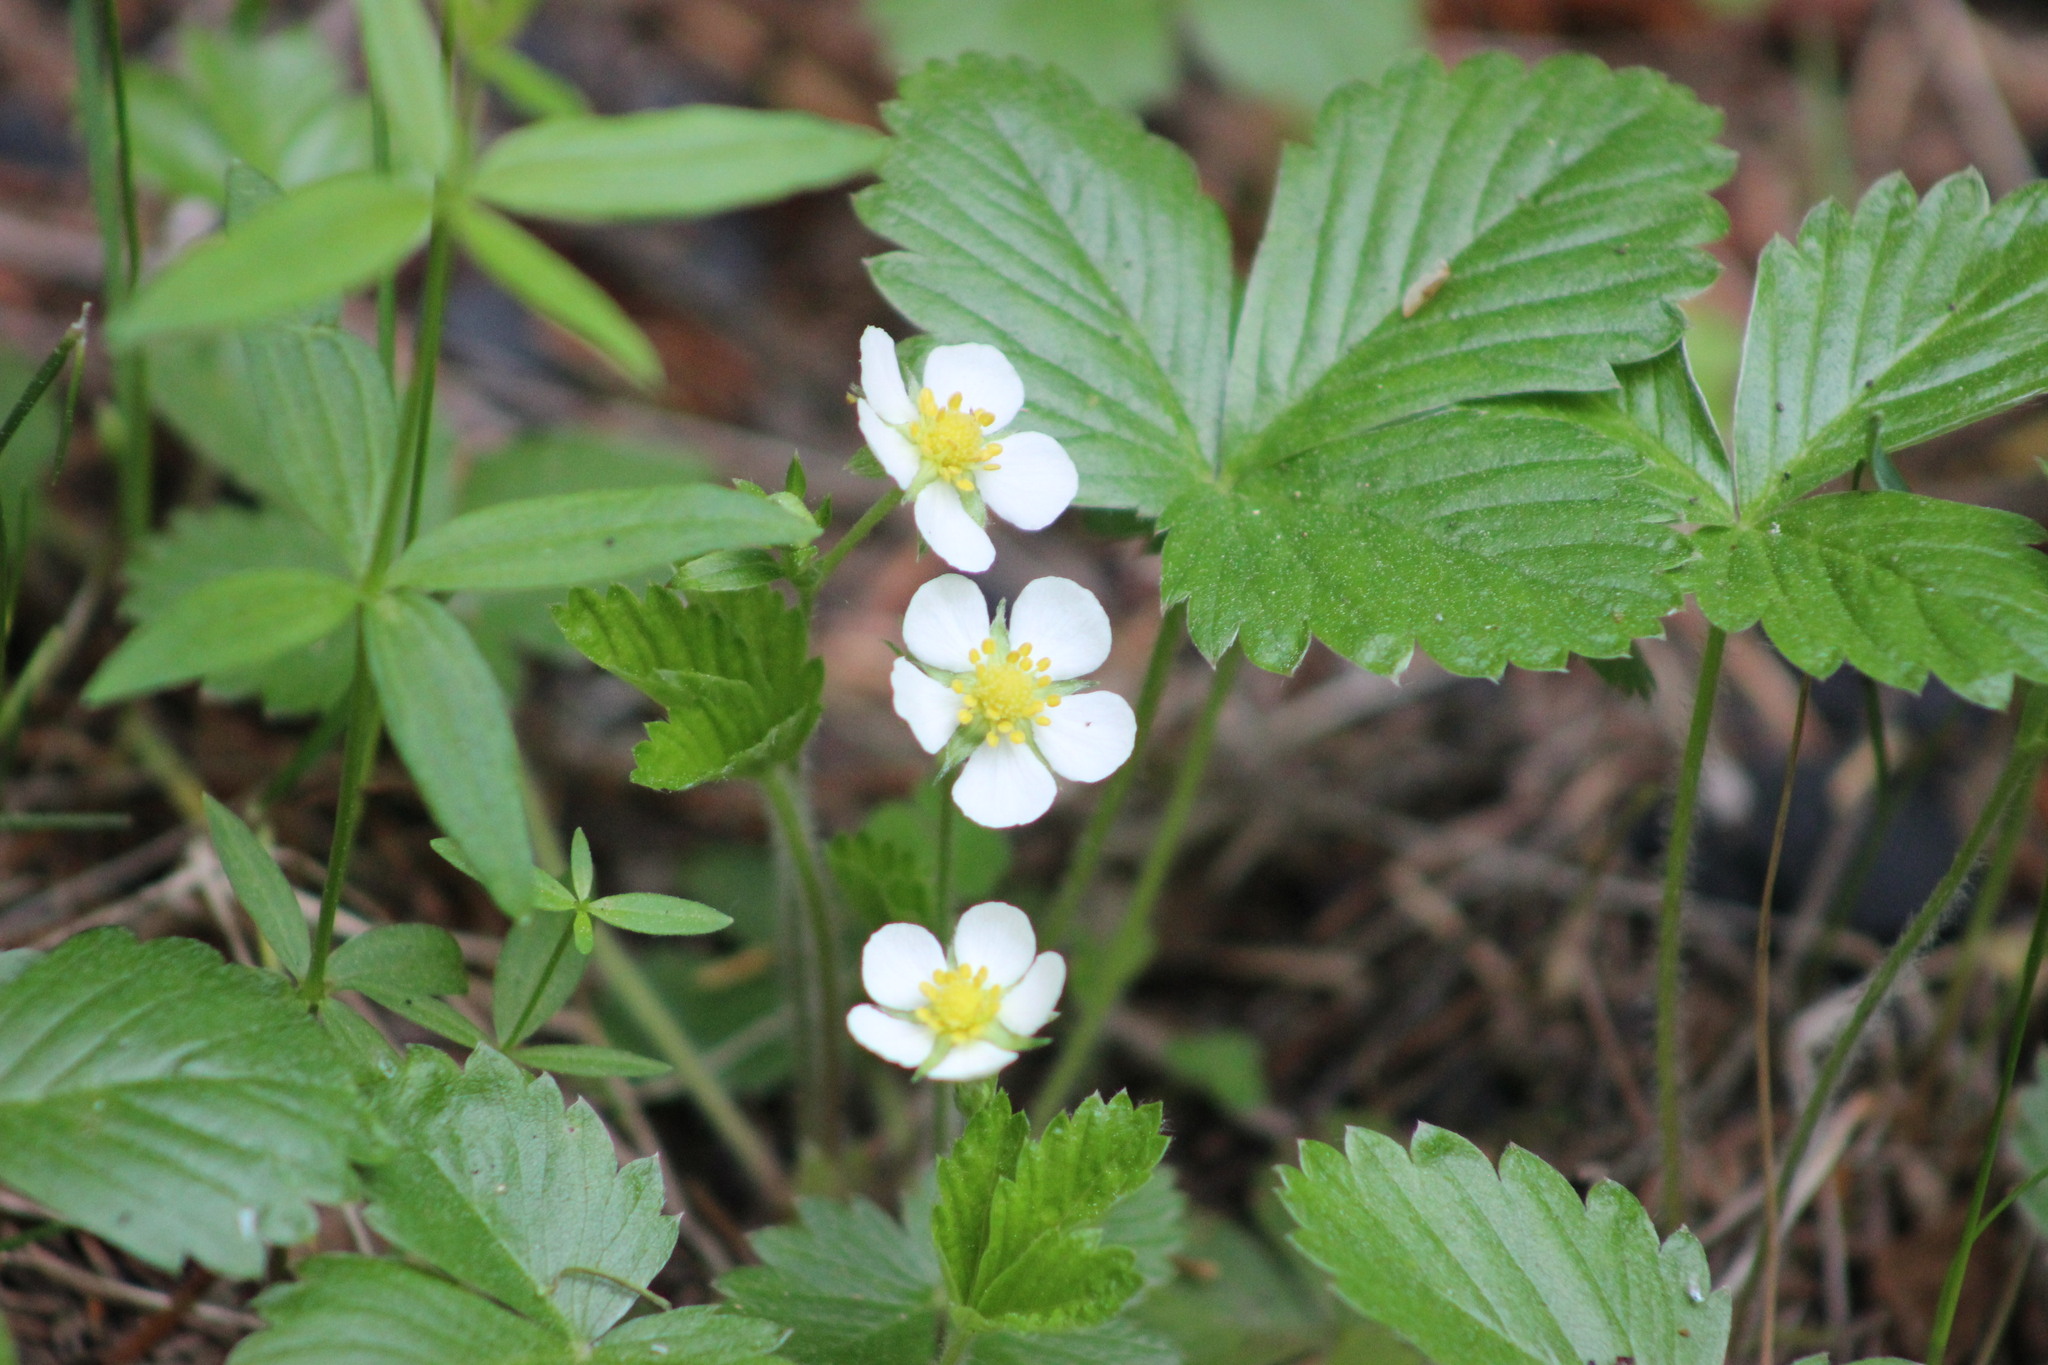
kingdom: Plantae
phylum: Tracheophyta
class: Magnoliopsida
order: Rosales
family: Rosaceae
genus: Fragaria
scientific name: Fragaria vesca
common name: Wild strawberry
